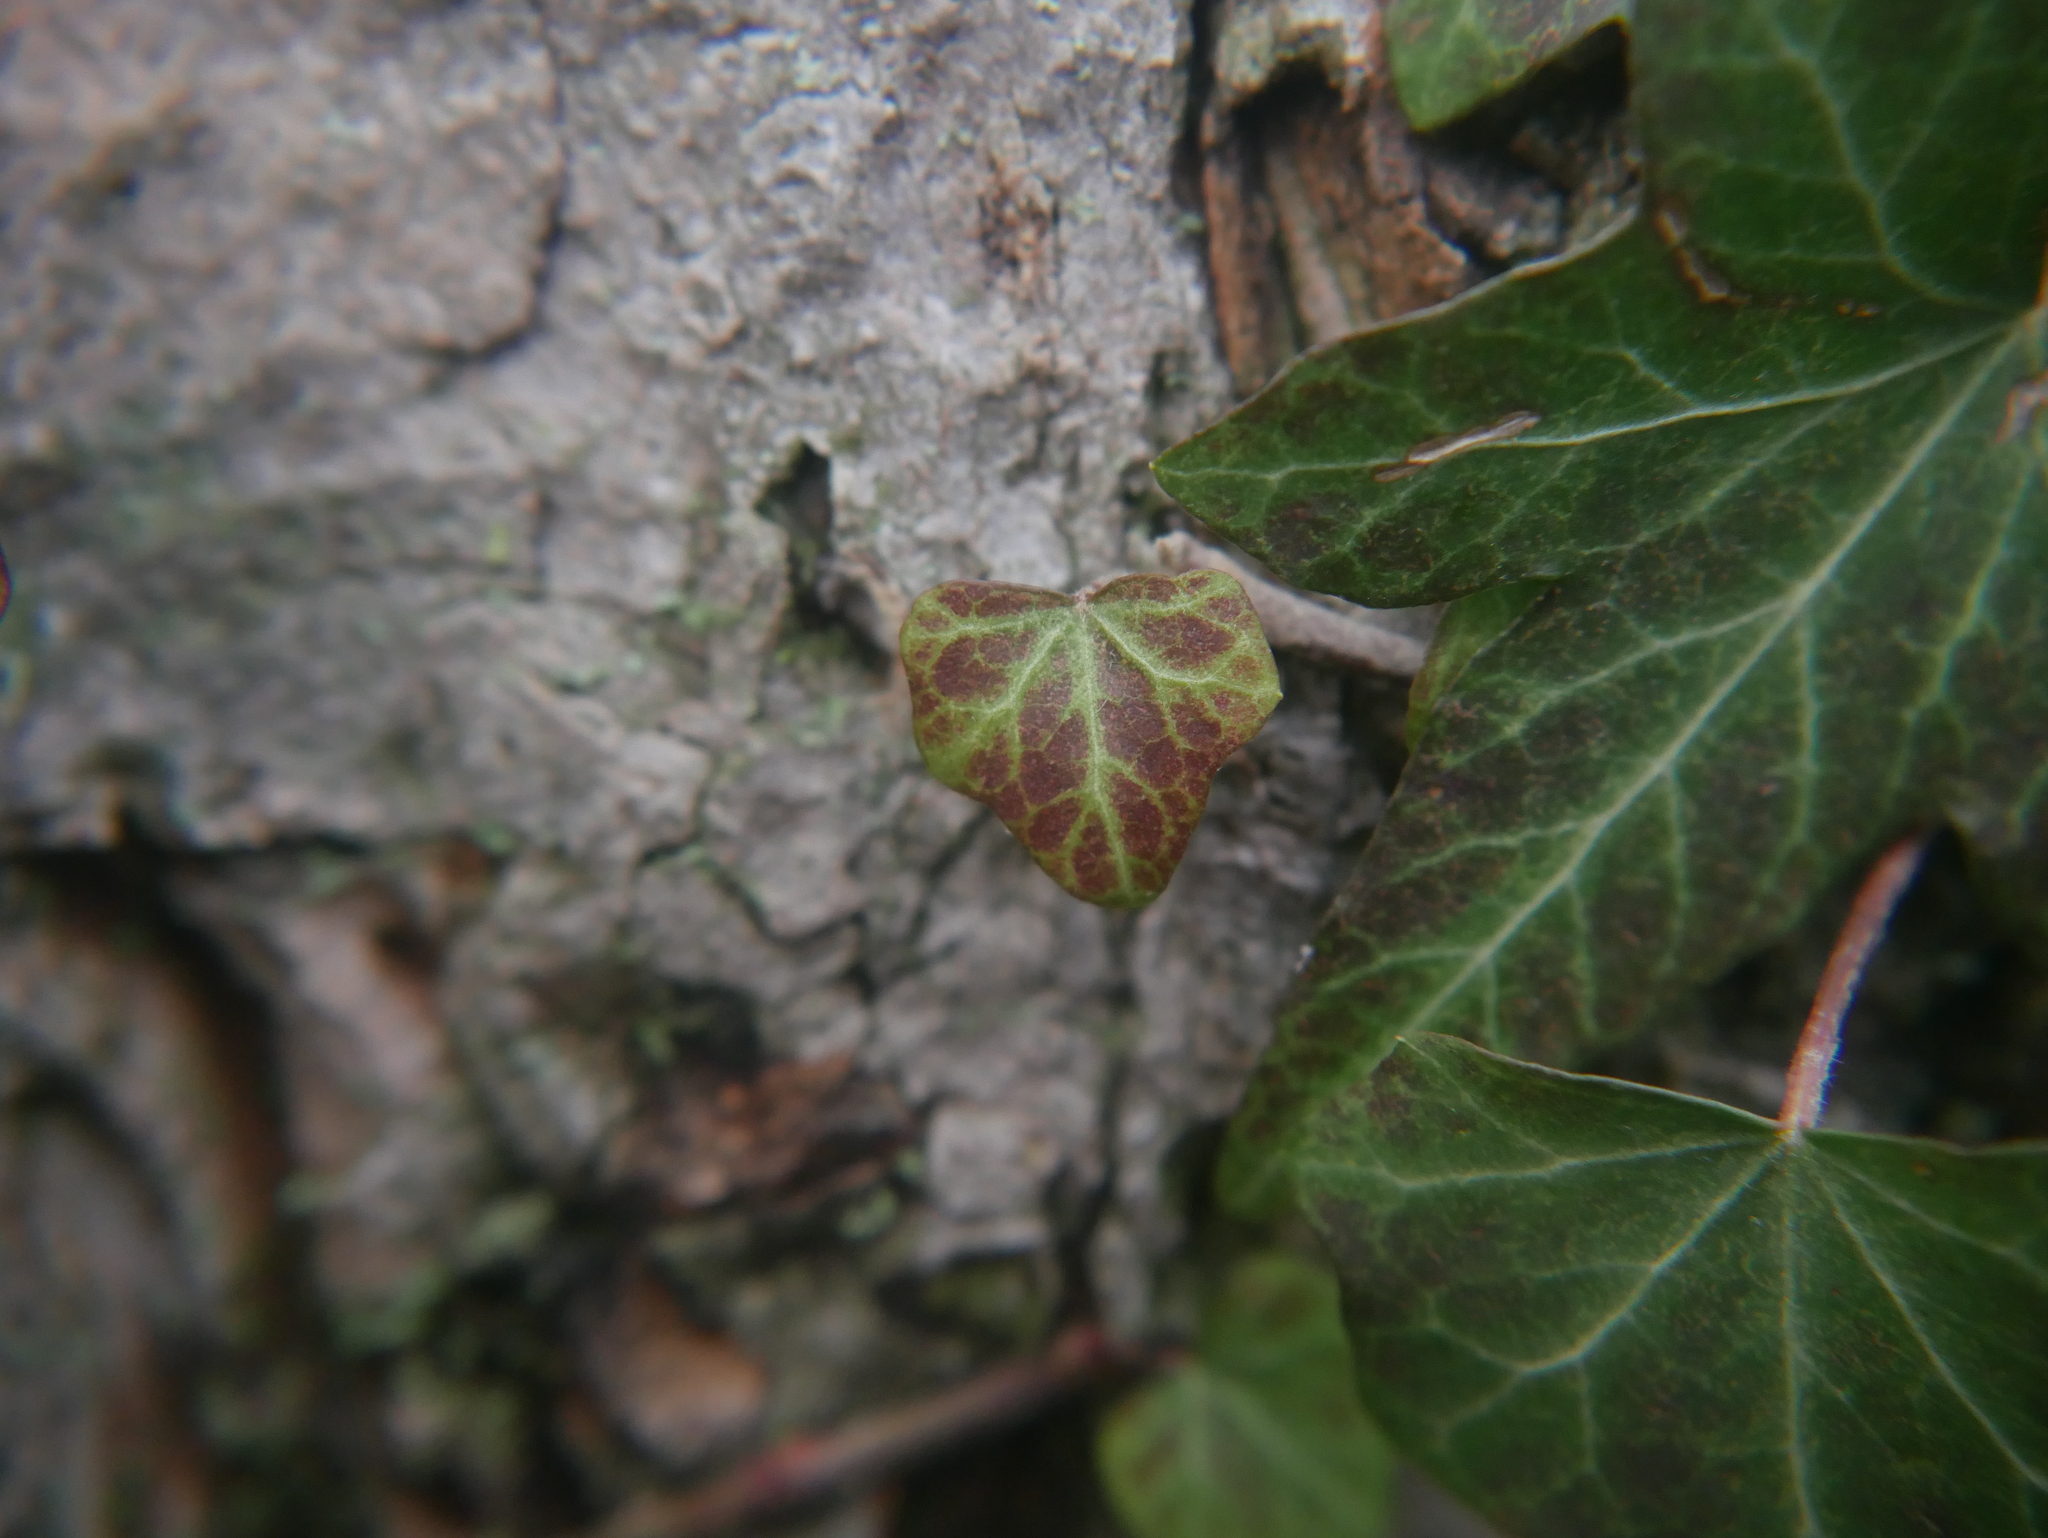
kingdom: Plantae
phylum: Tracheophyta
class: Magnoliopsida
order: Apiales
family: Araliaceae
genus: Hedera
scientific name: Hedera helix
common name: Ivy
